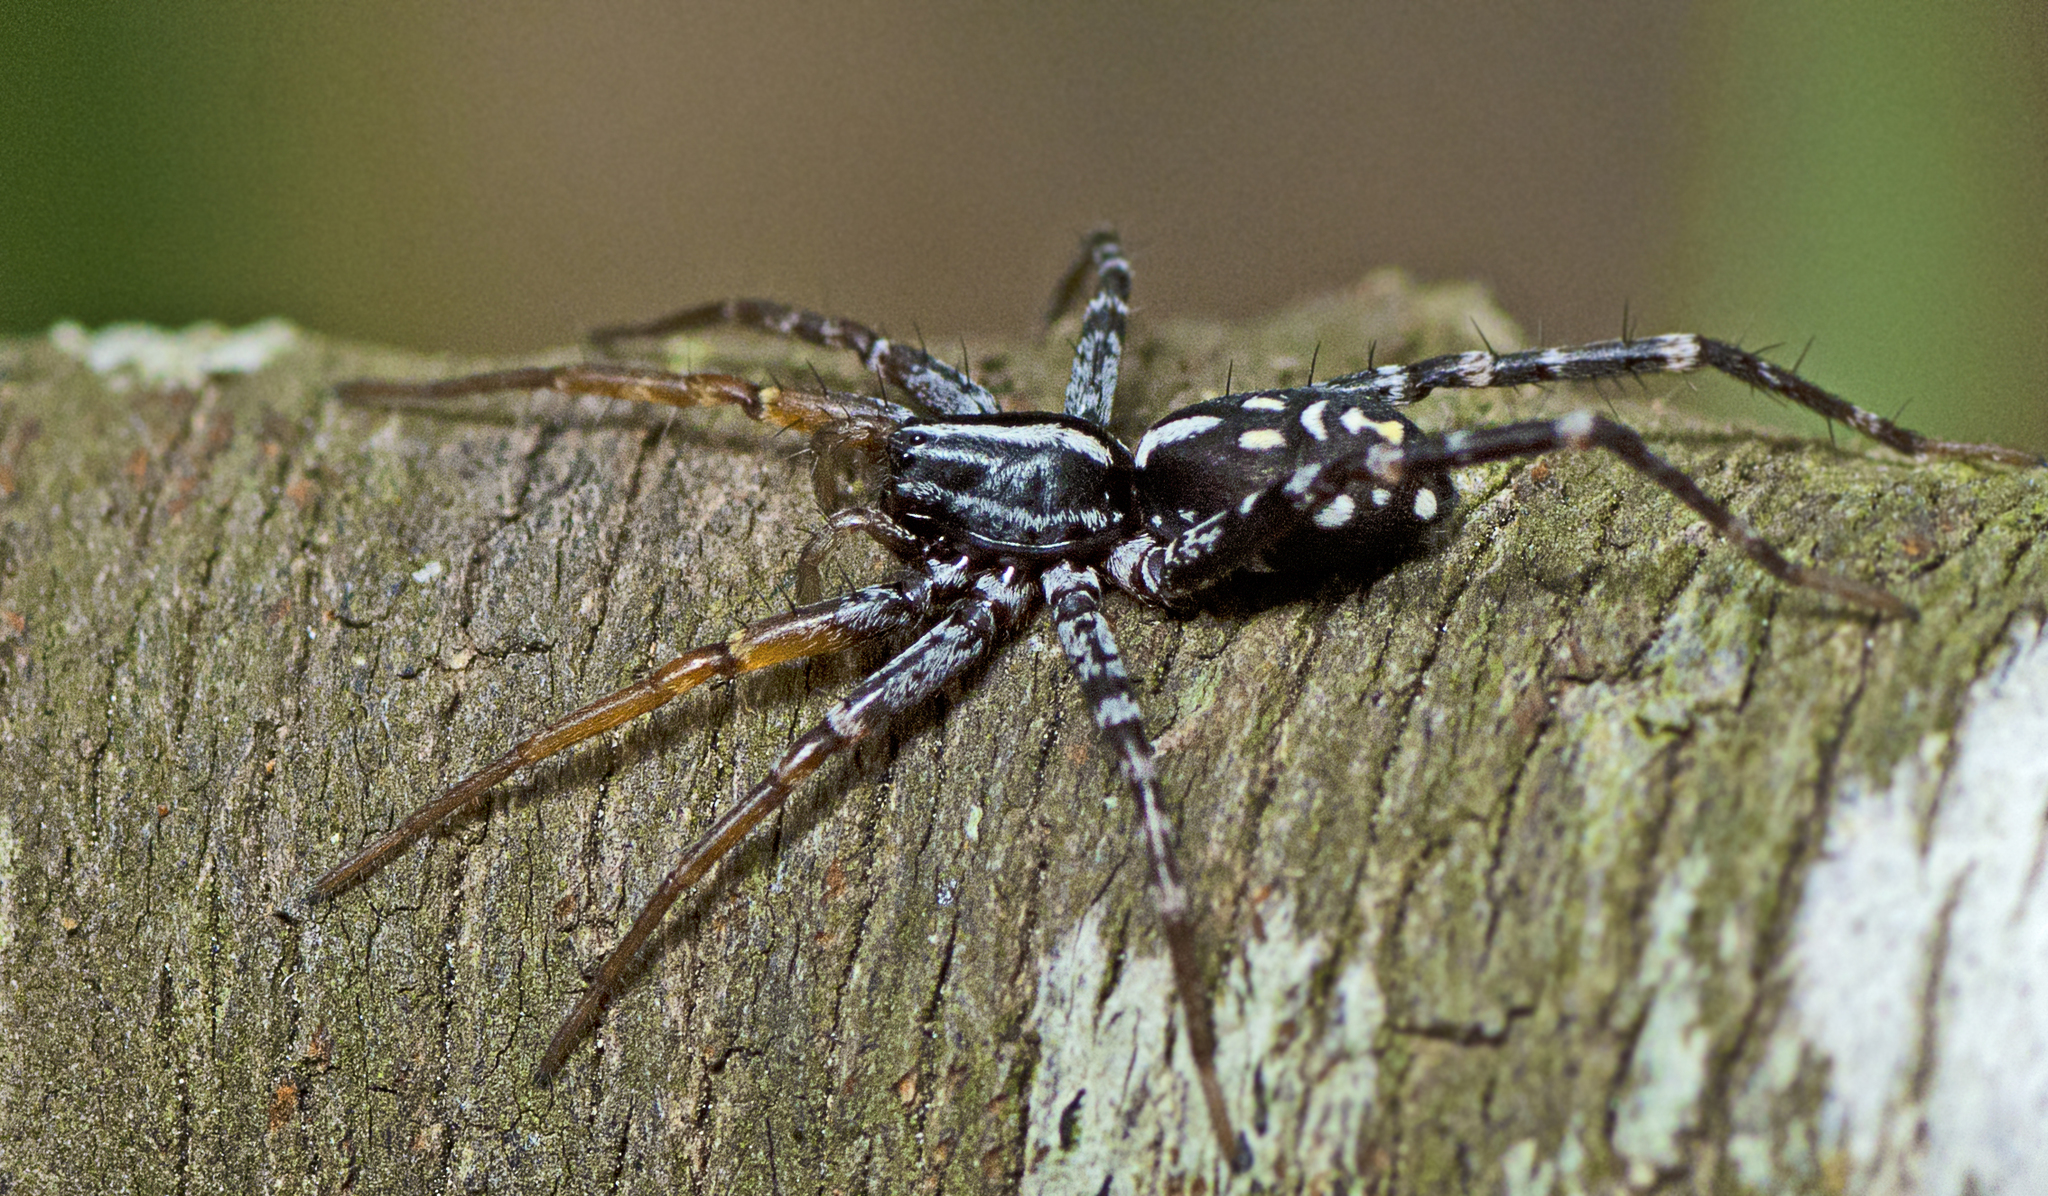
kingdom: Animalia
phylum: Arthropoda
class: Arachnida
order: Araneae
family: Corinnidae
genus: Nyssus
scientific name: Nyssus coloripes
